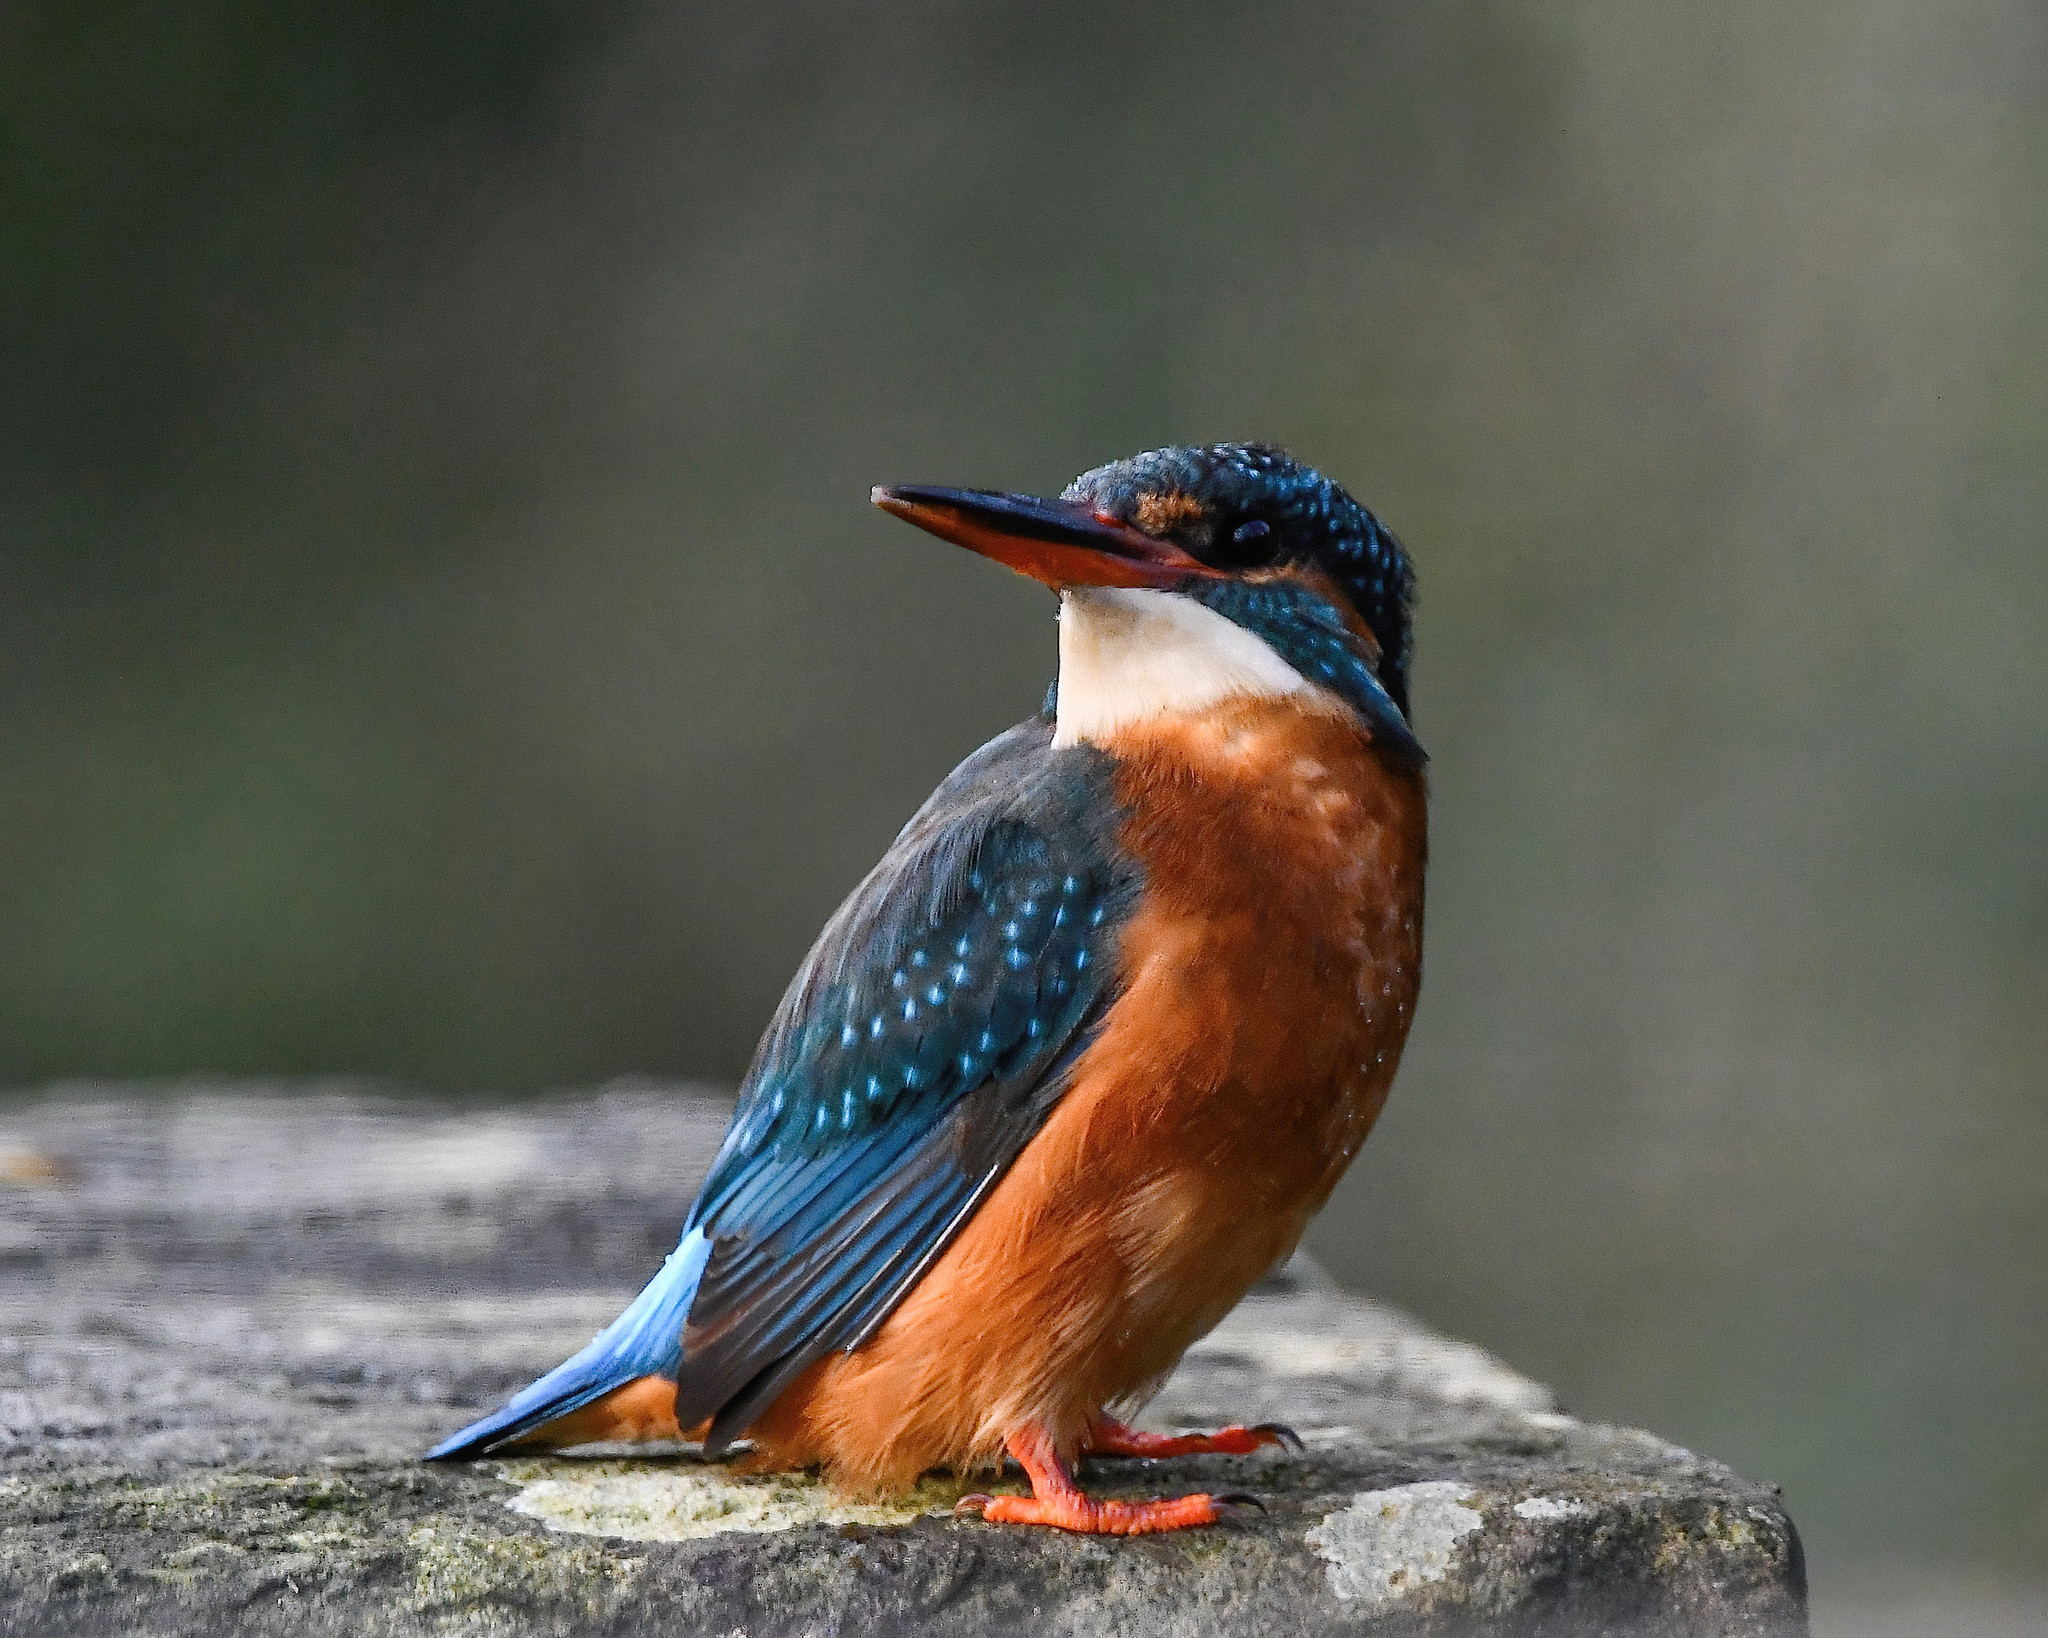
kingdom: Animalia
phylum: Chordata
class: Aves
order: Coraciiformes
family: Alcedinidae
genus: Alcedo
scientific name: Alcedo atthis
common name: Common kingfisher
